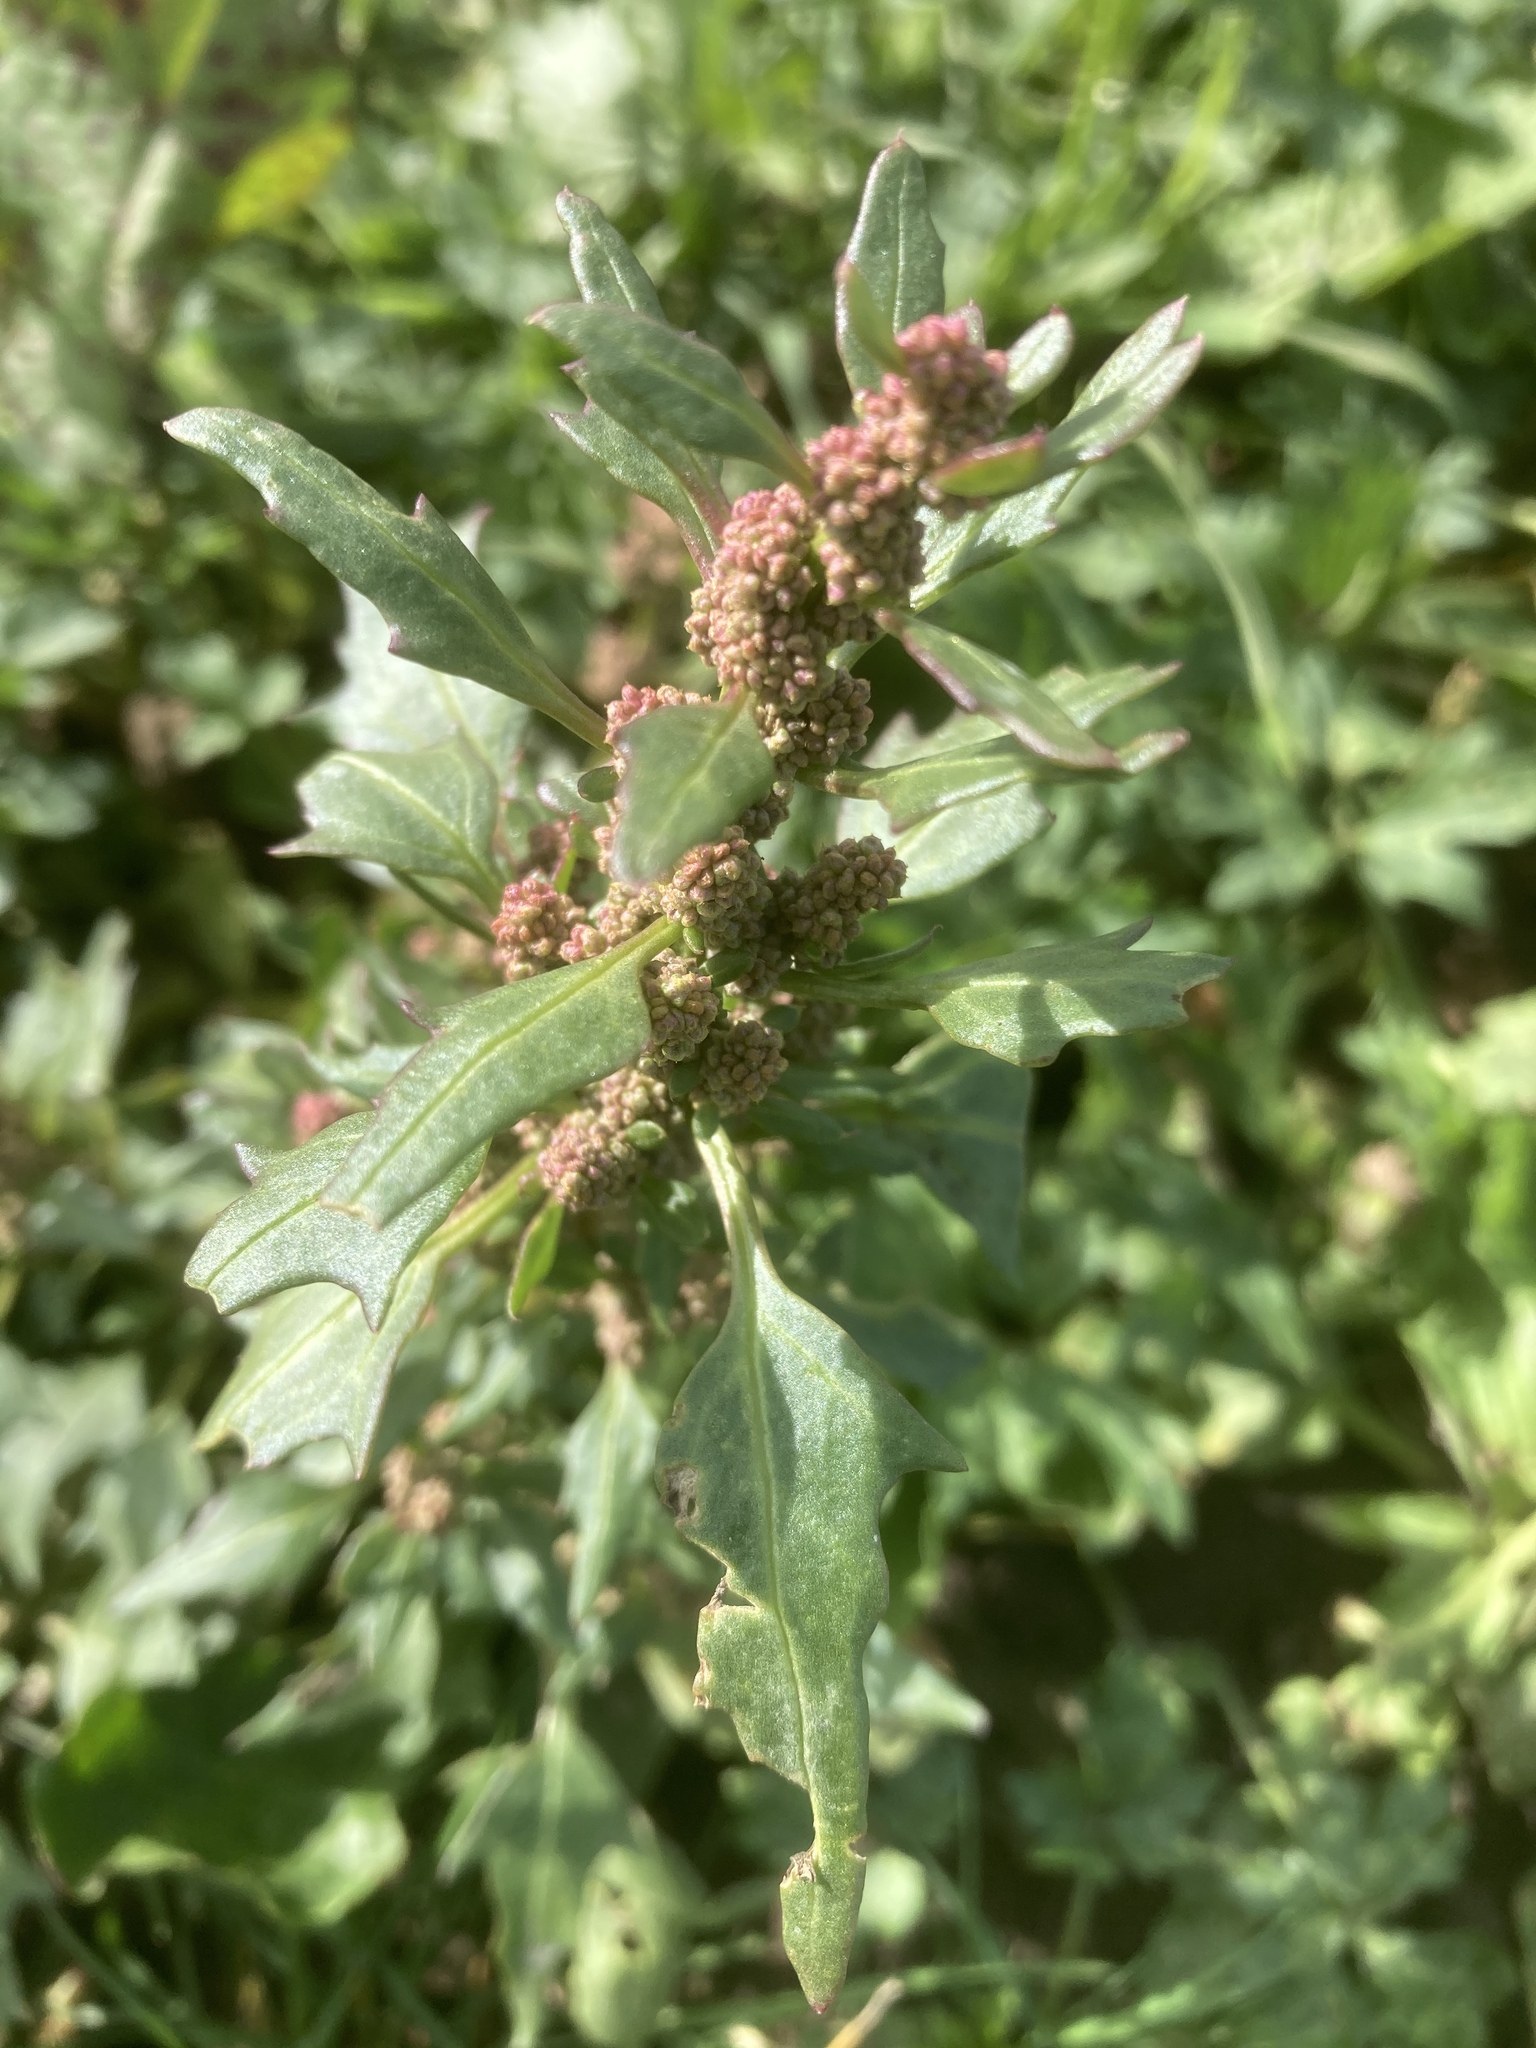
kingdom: Plantae
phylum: Tracheophyta
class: Magnoliopsida
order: Caryophyllales
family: Amaranthaceae
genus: Oxybasis
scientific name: Oxybasis rubra
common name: Red goosefoot
